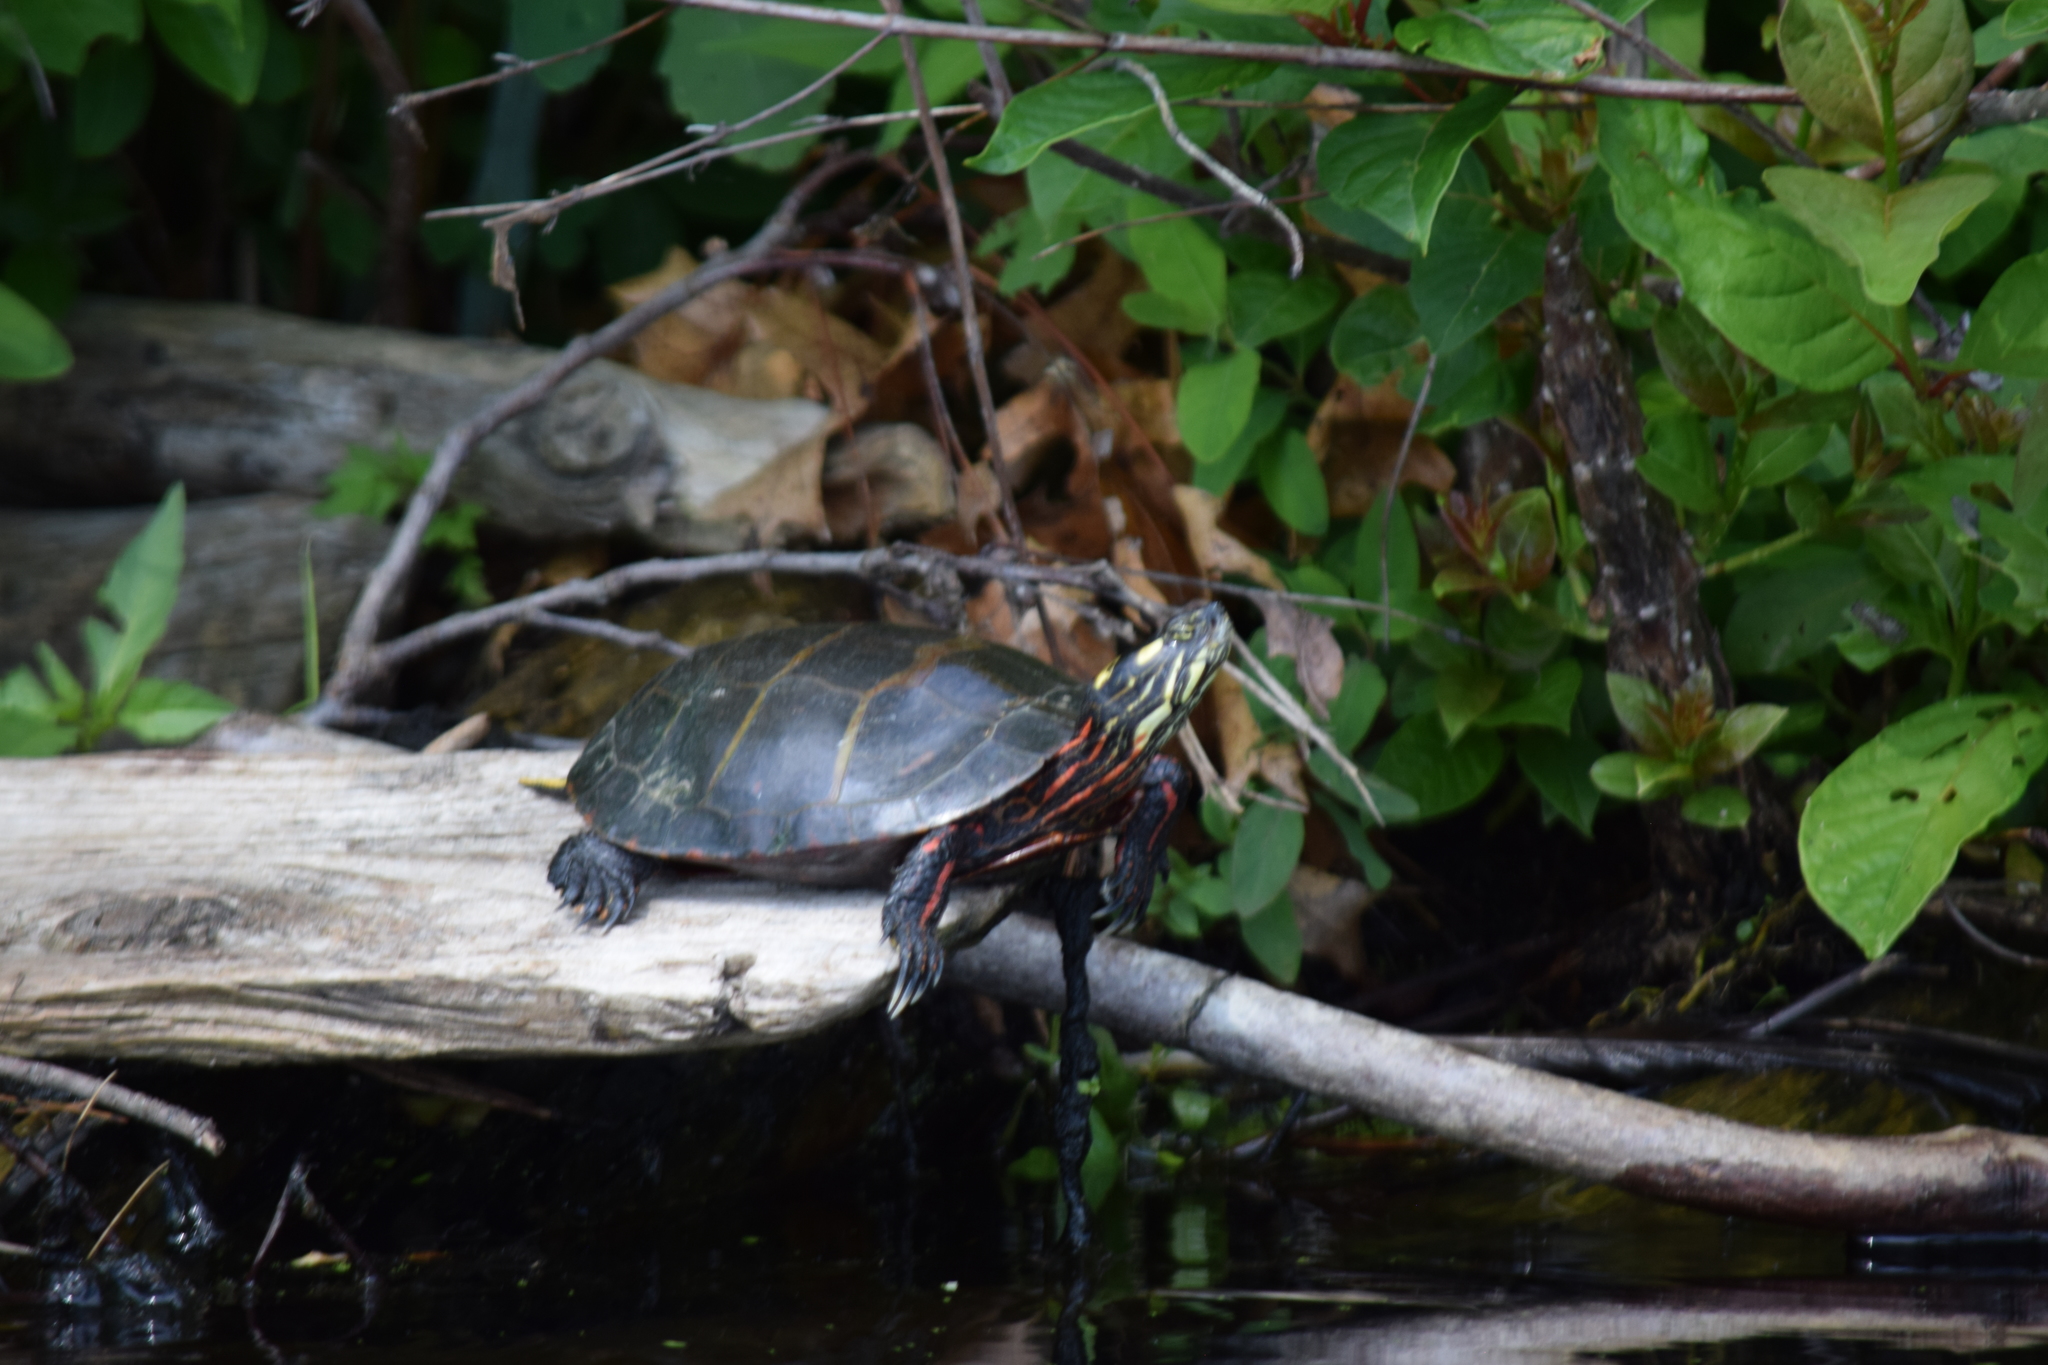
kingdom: Animalia
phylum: Chordata
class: Testudines
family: Emydidae
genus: Chrysemys
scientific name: Chrysemys picta
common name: Painted turtle
